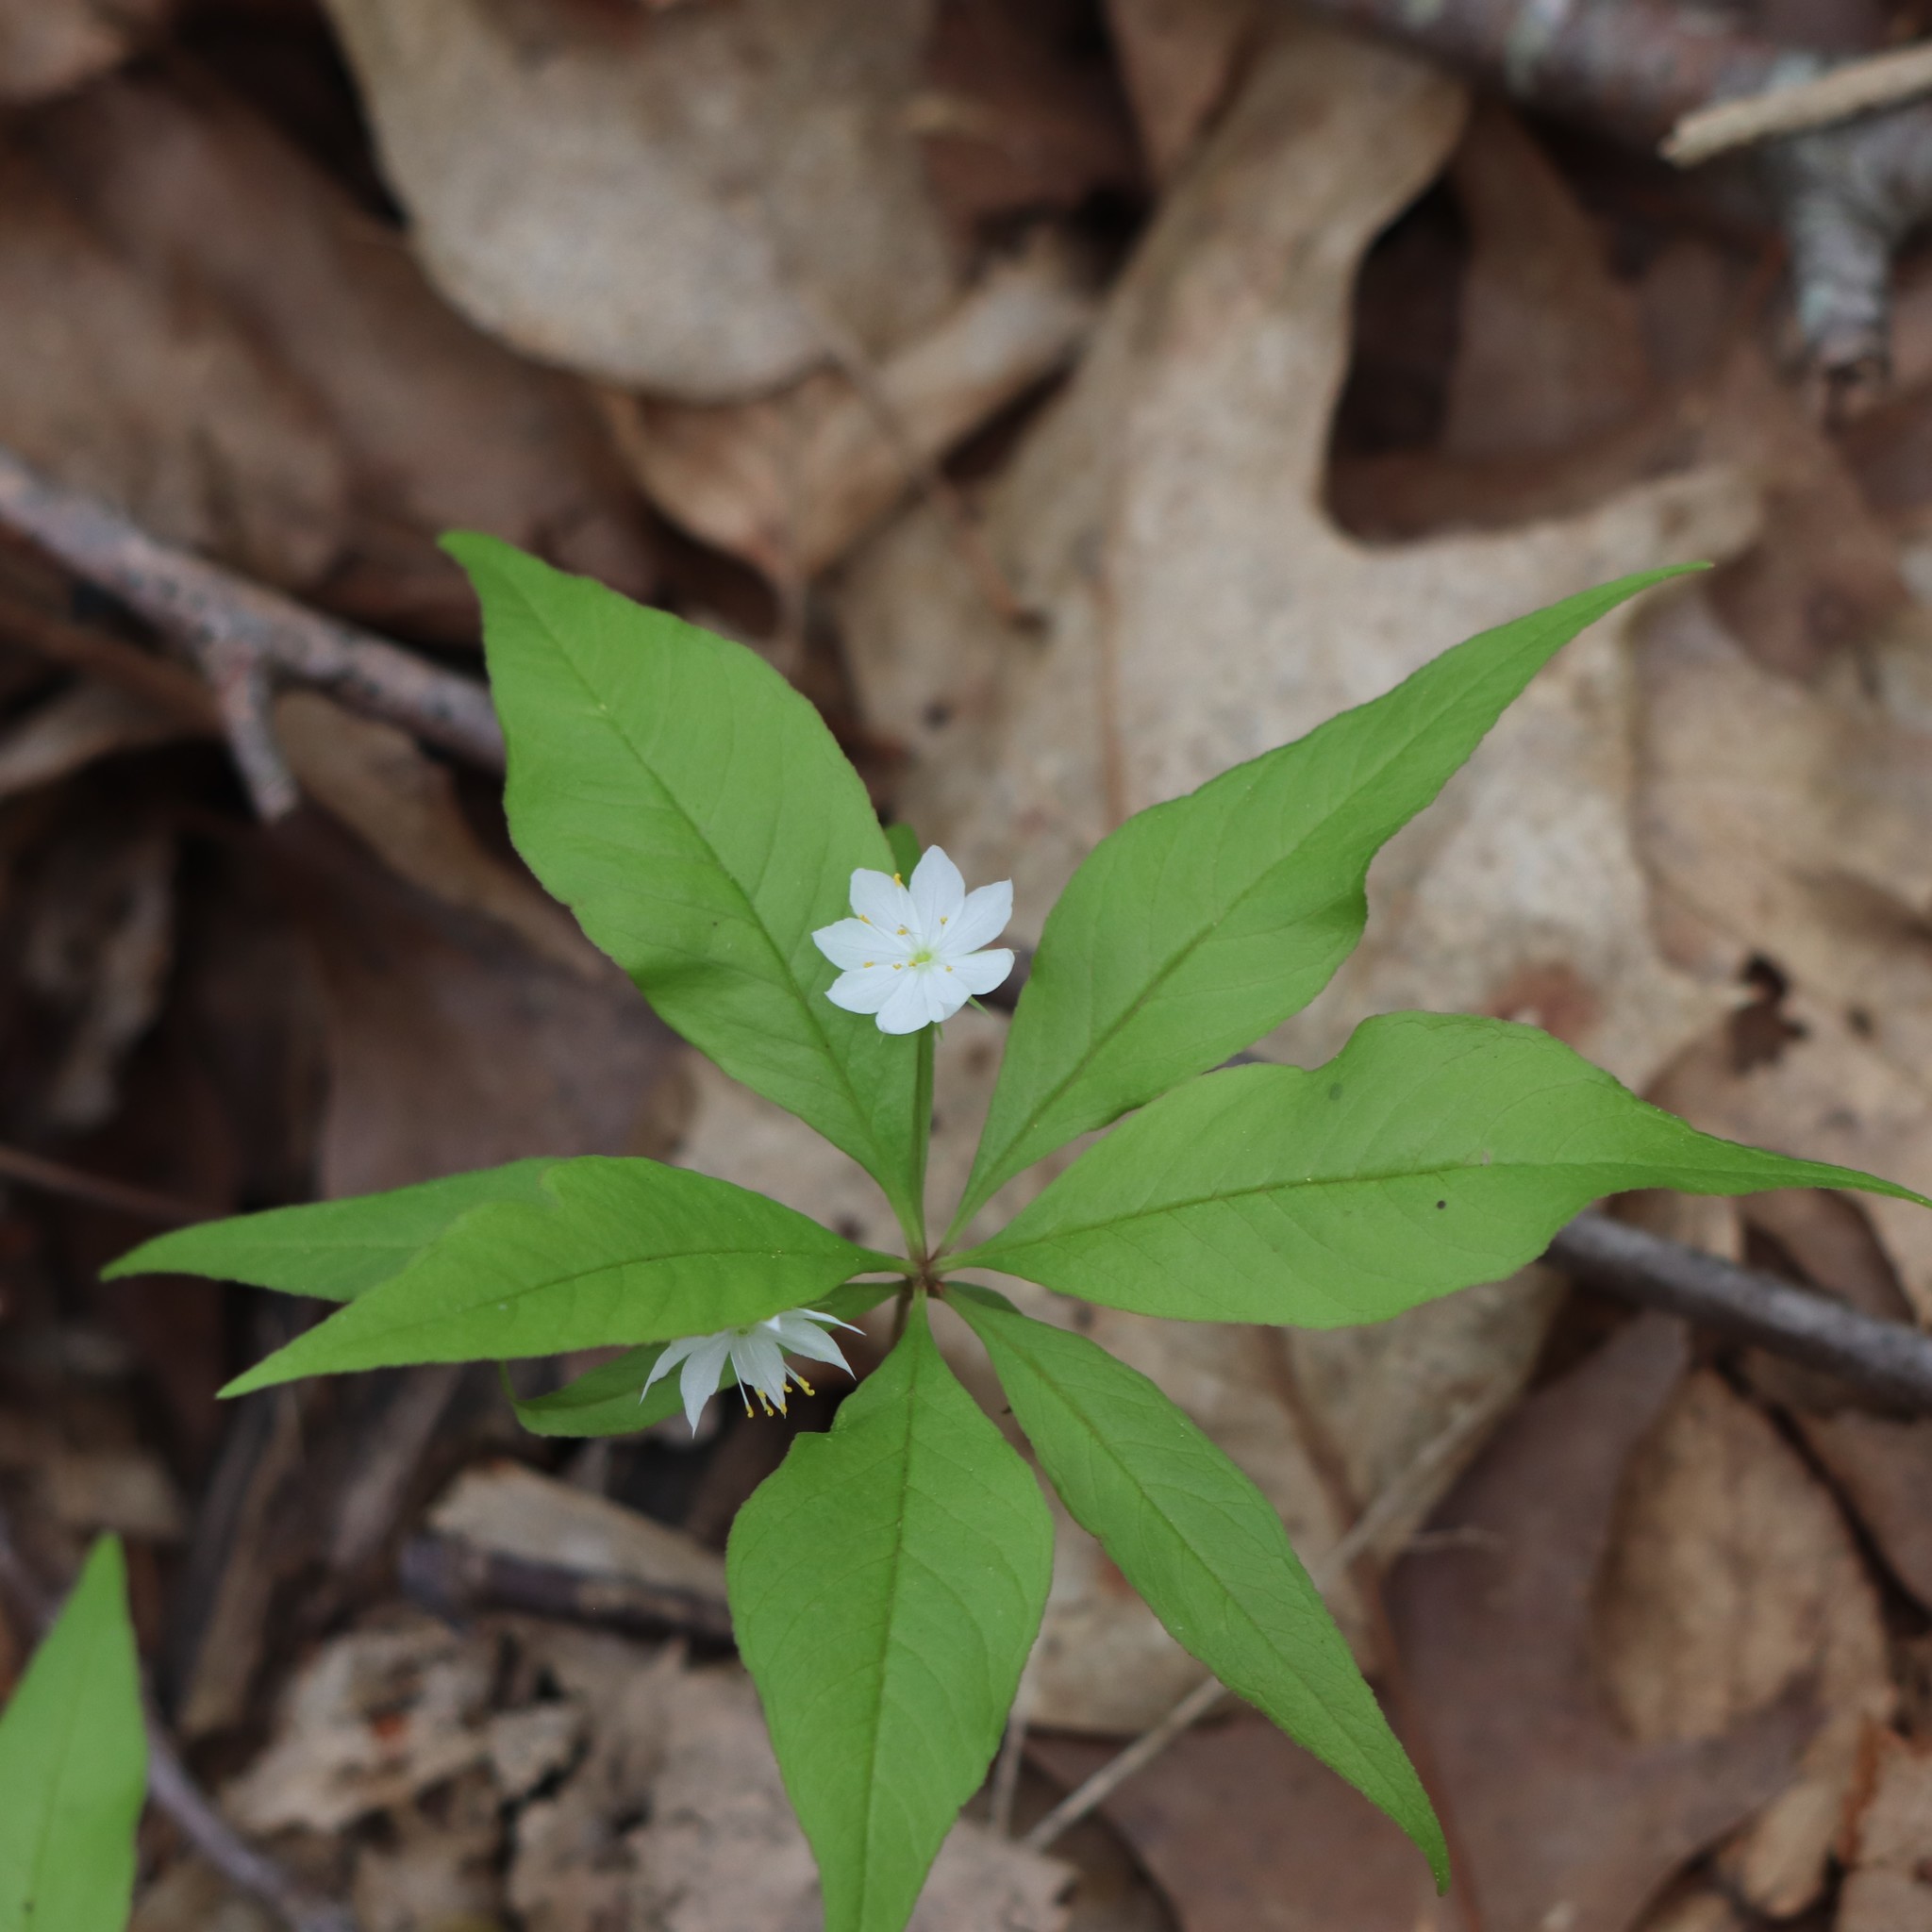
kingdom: Plantae
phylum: Tracheophyta
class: Magnoliopsida
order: Ericales
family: Primulaceae
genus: Lysimachia
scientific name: Lysimachia borealis
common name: American starflower
